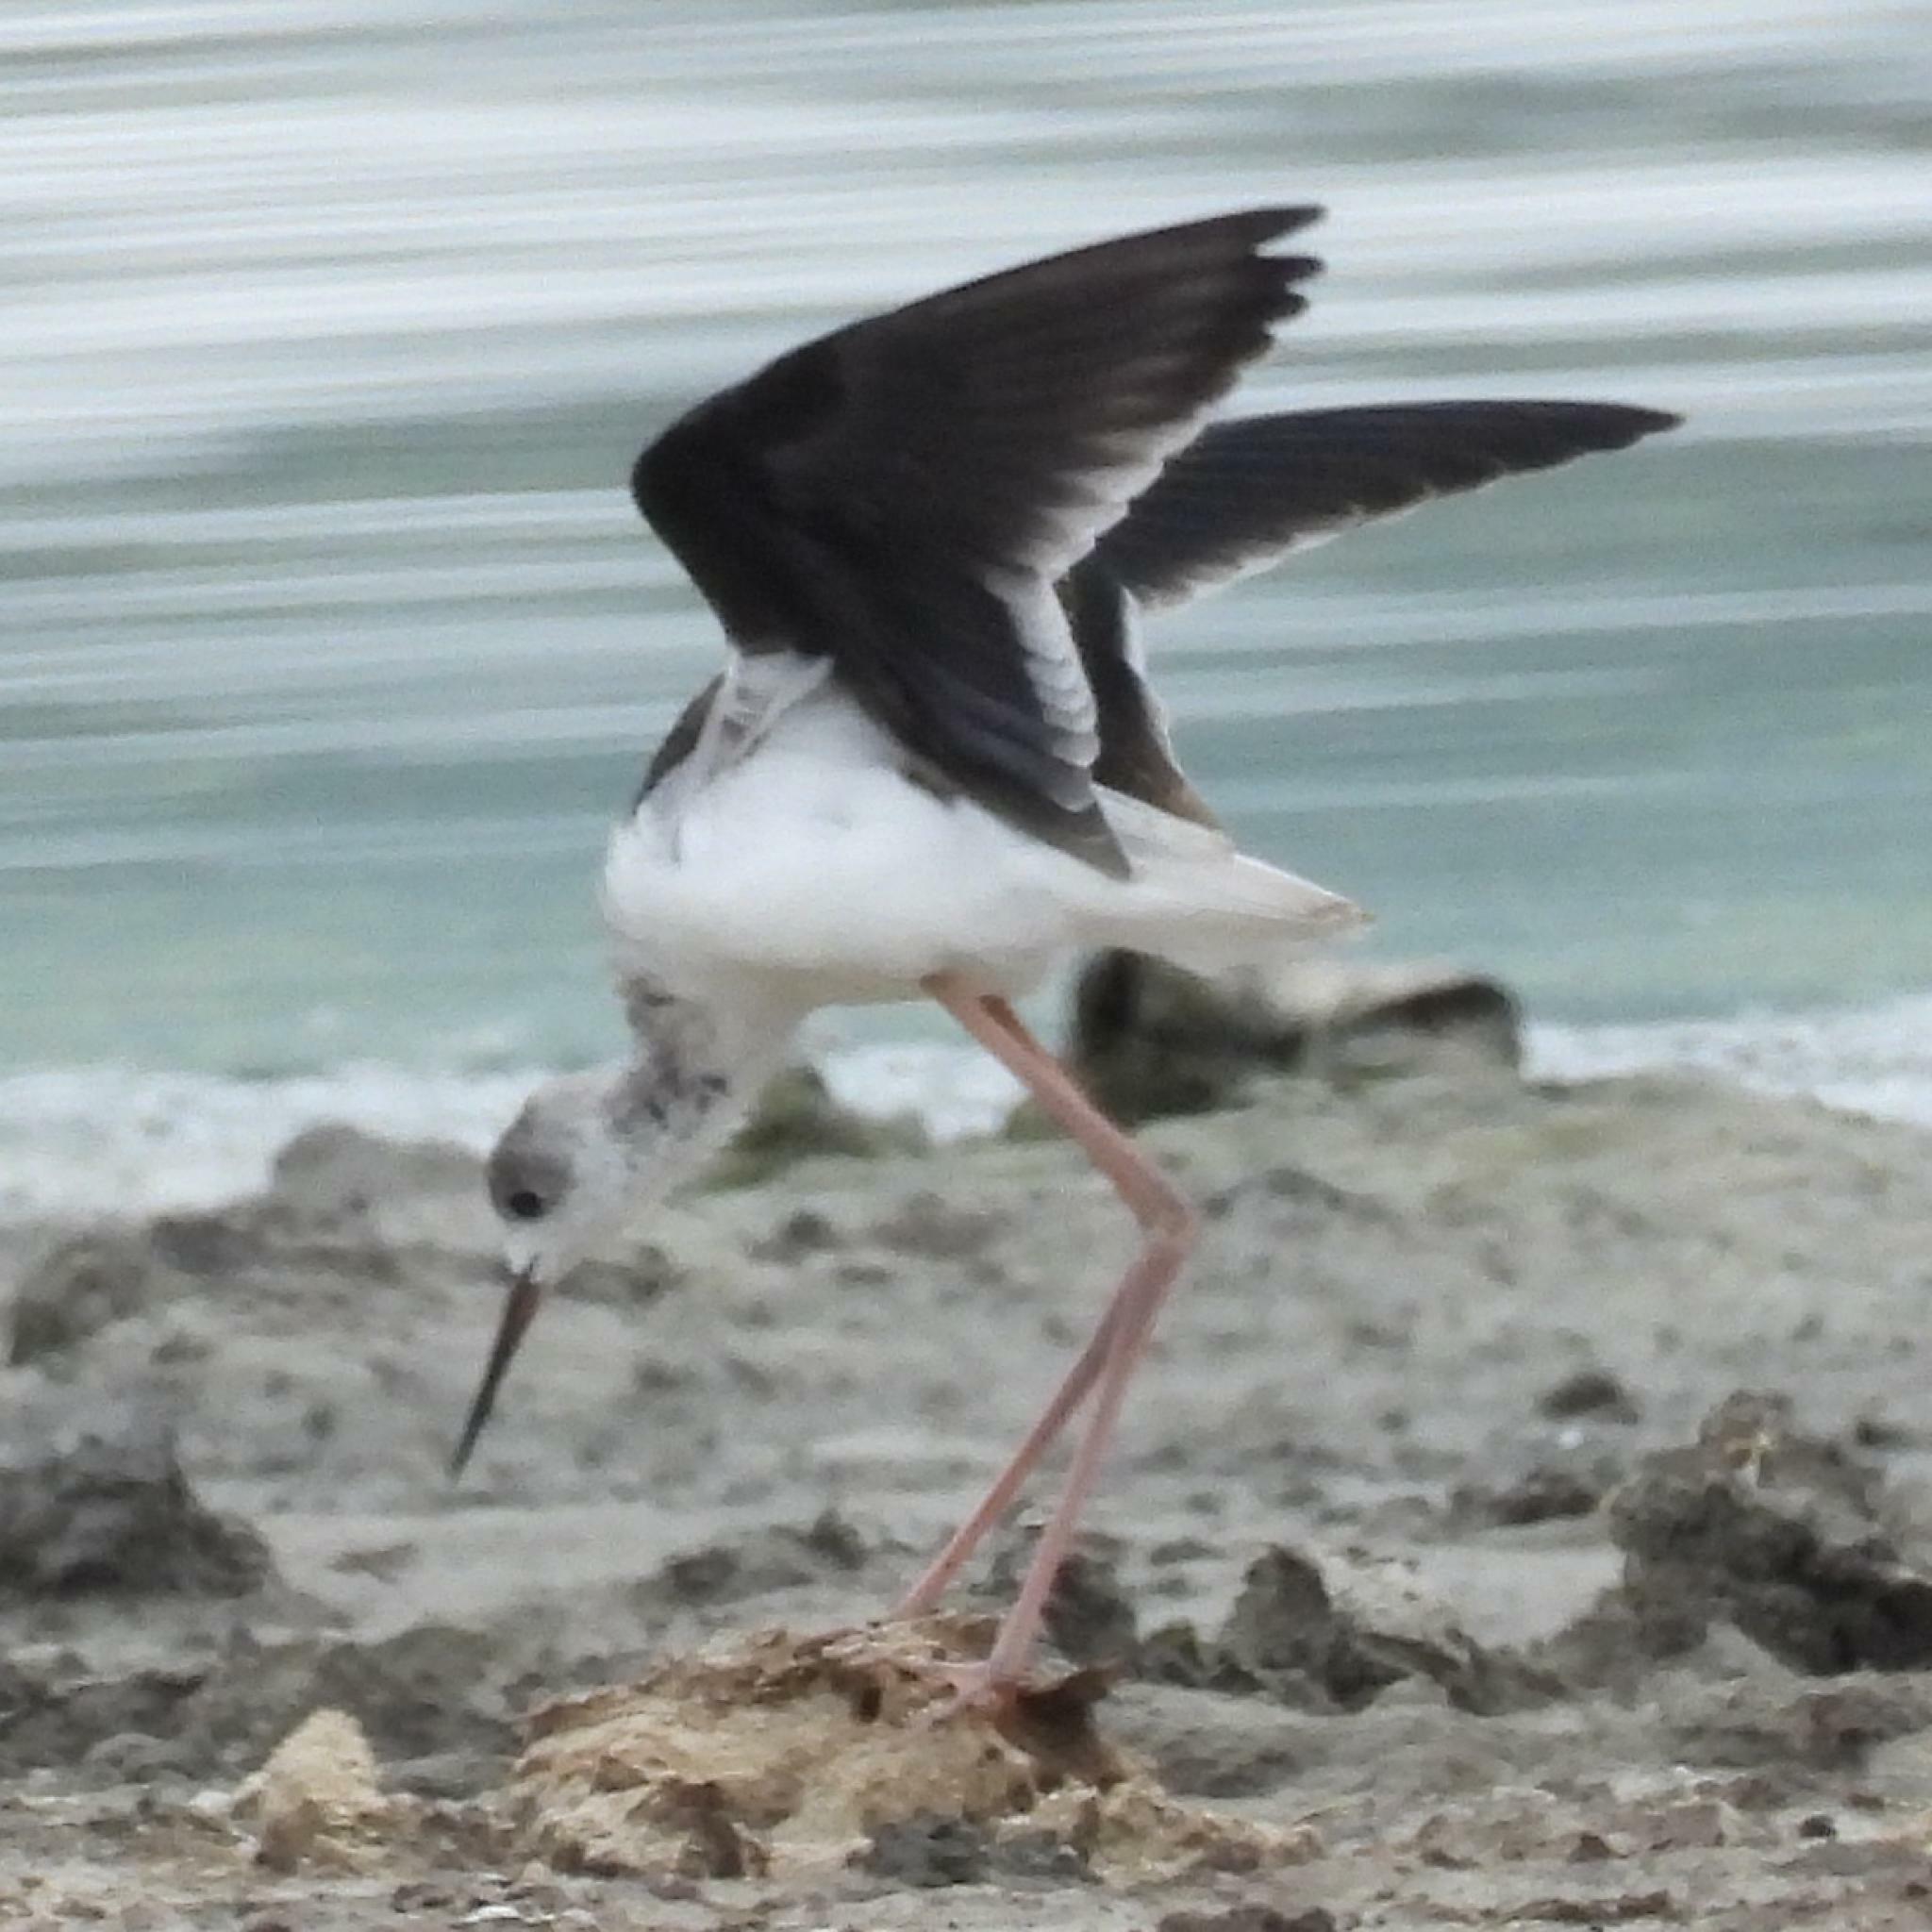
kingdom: Animalia
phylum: Chordata
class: Aves
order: Charadriiformes
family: Recurvirostridae
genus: Himantopus
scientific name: Himantopus himantopus
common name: Black-winged stilt
